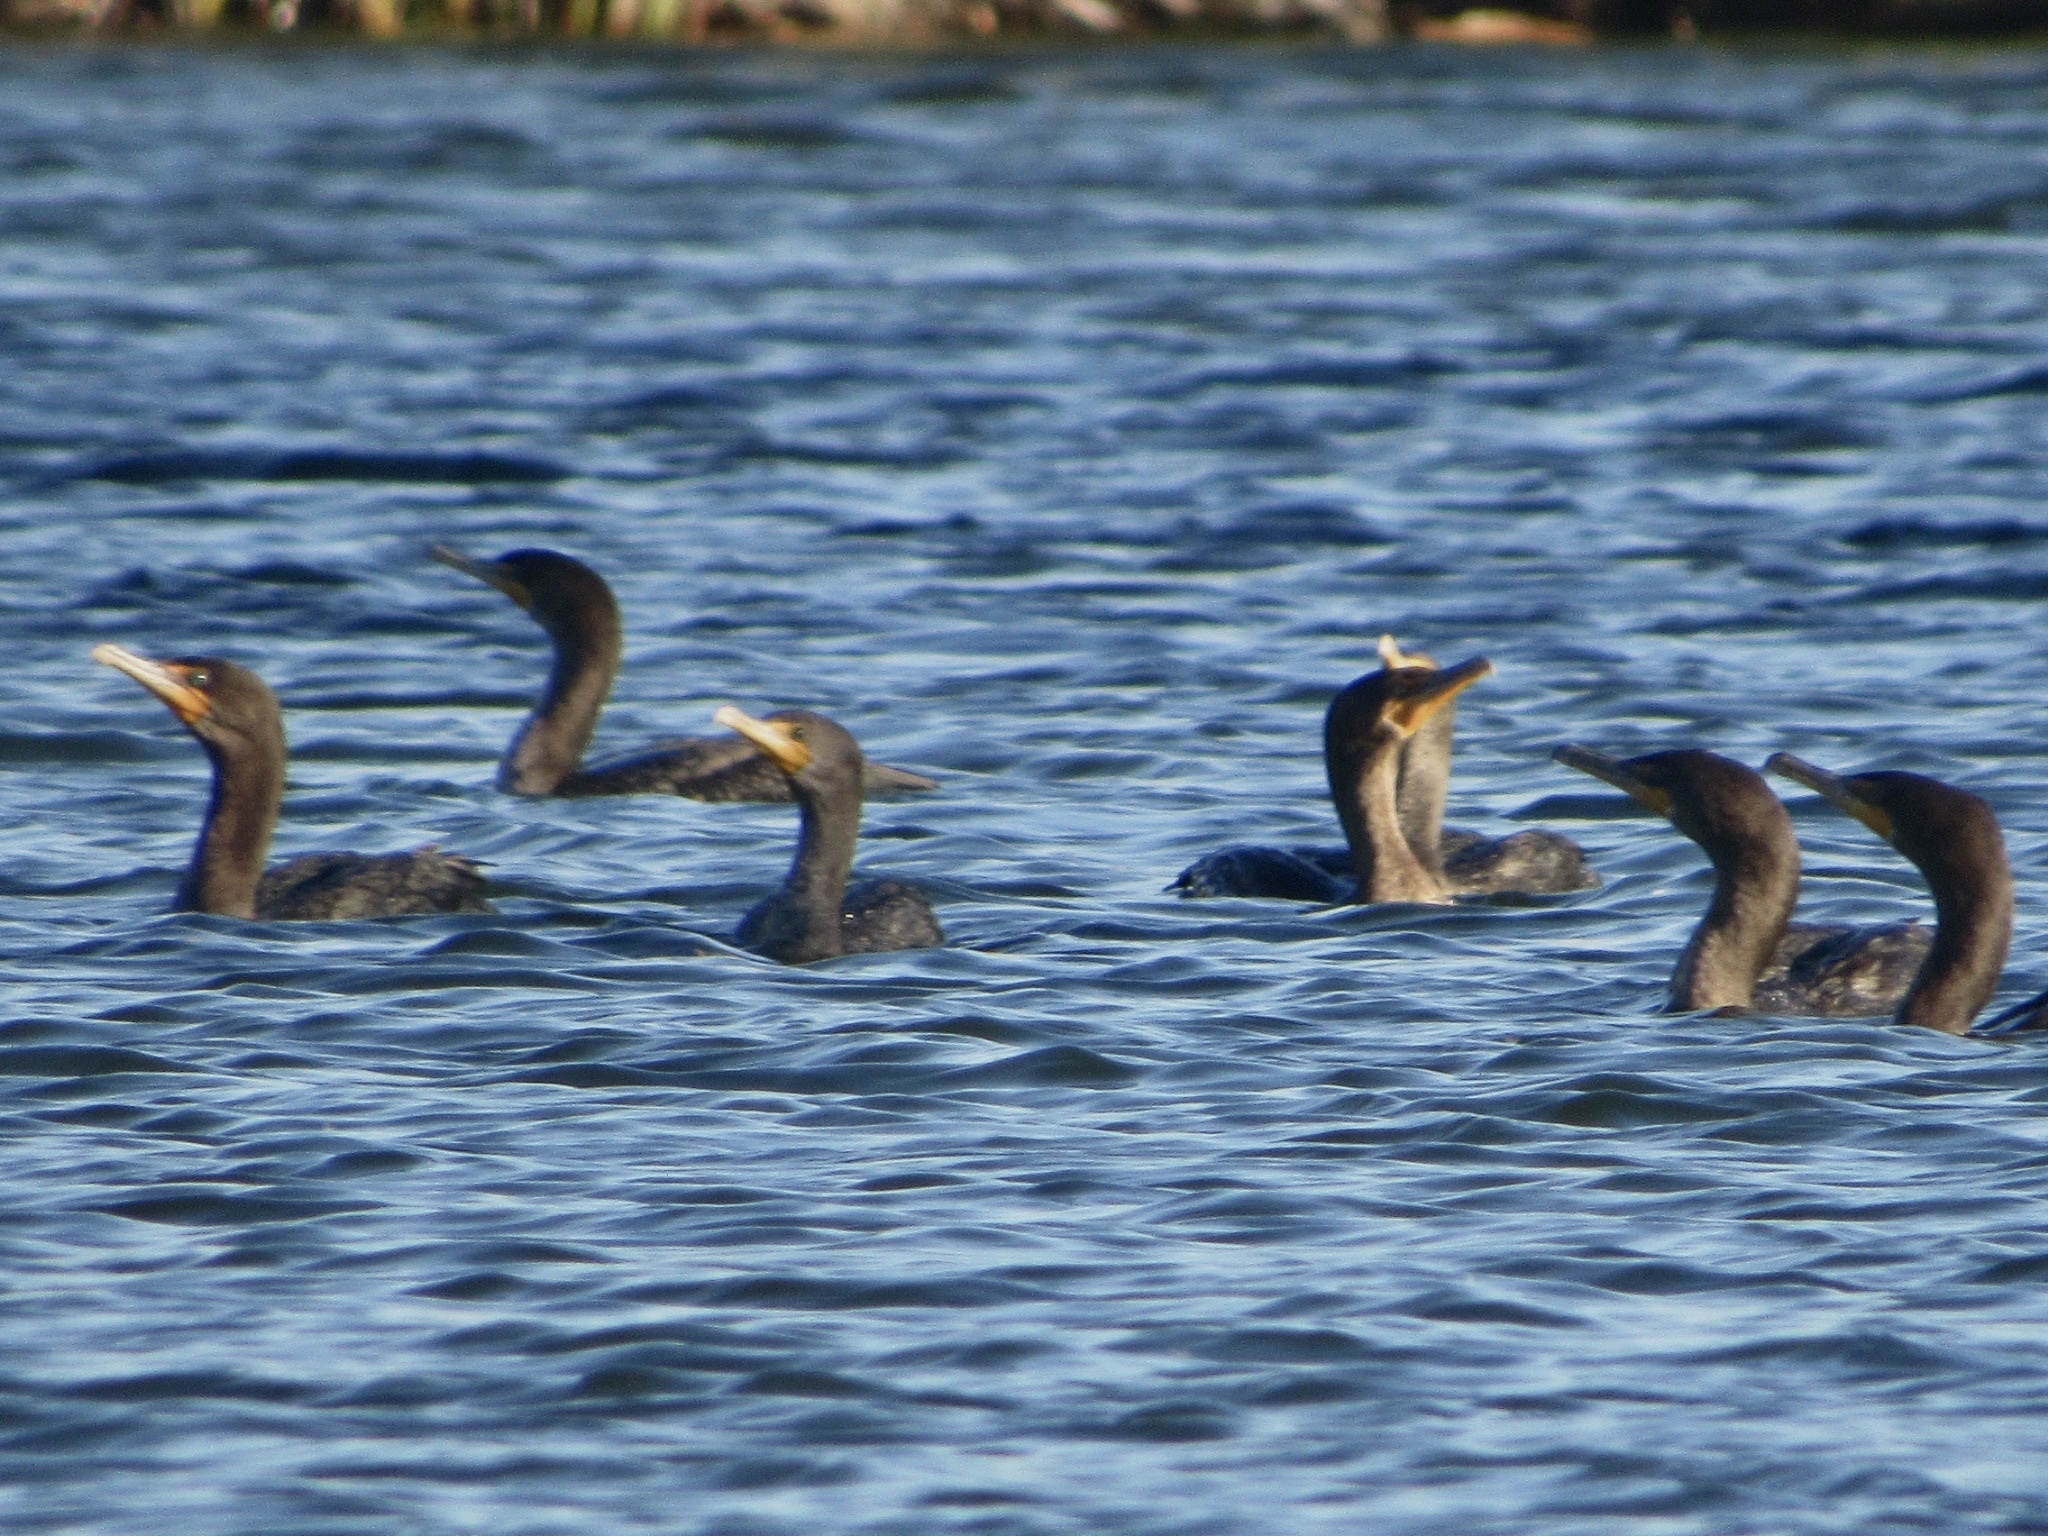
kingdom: Animalia
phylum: Chordata
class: Aves
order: Suliformes
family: Phalacrocoracidae
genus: Phalacrocorax
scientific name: Phalacrocorax auritus
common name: Double-crested cormorant
